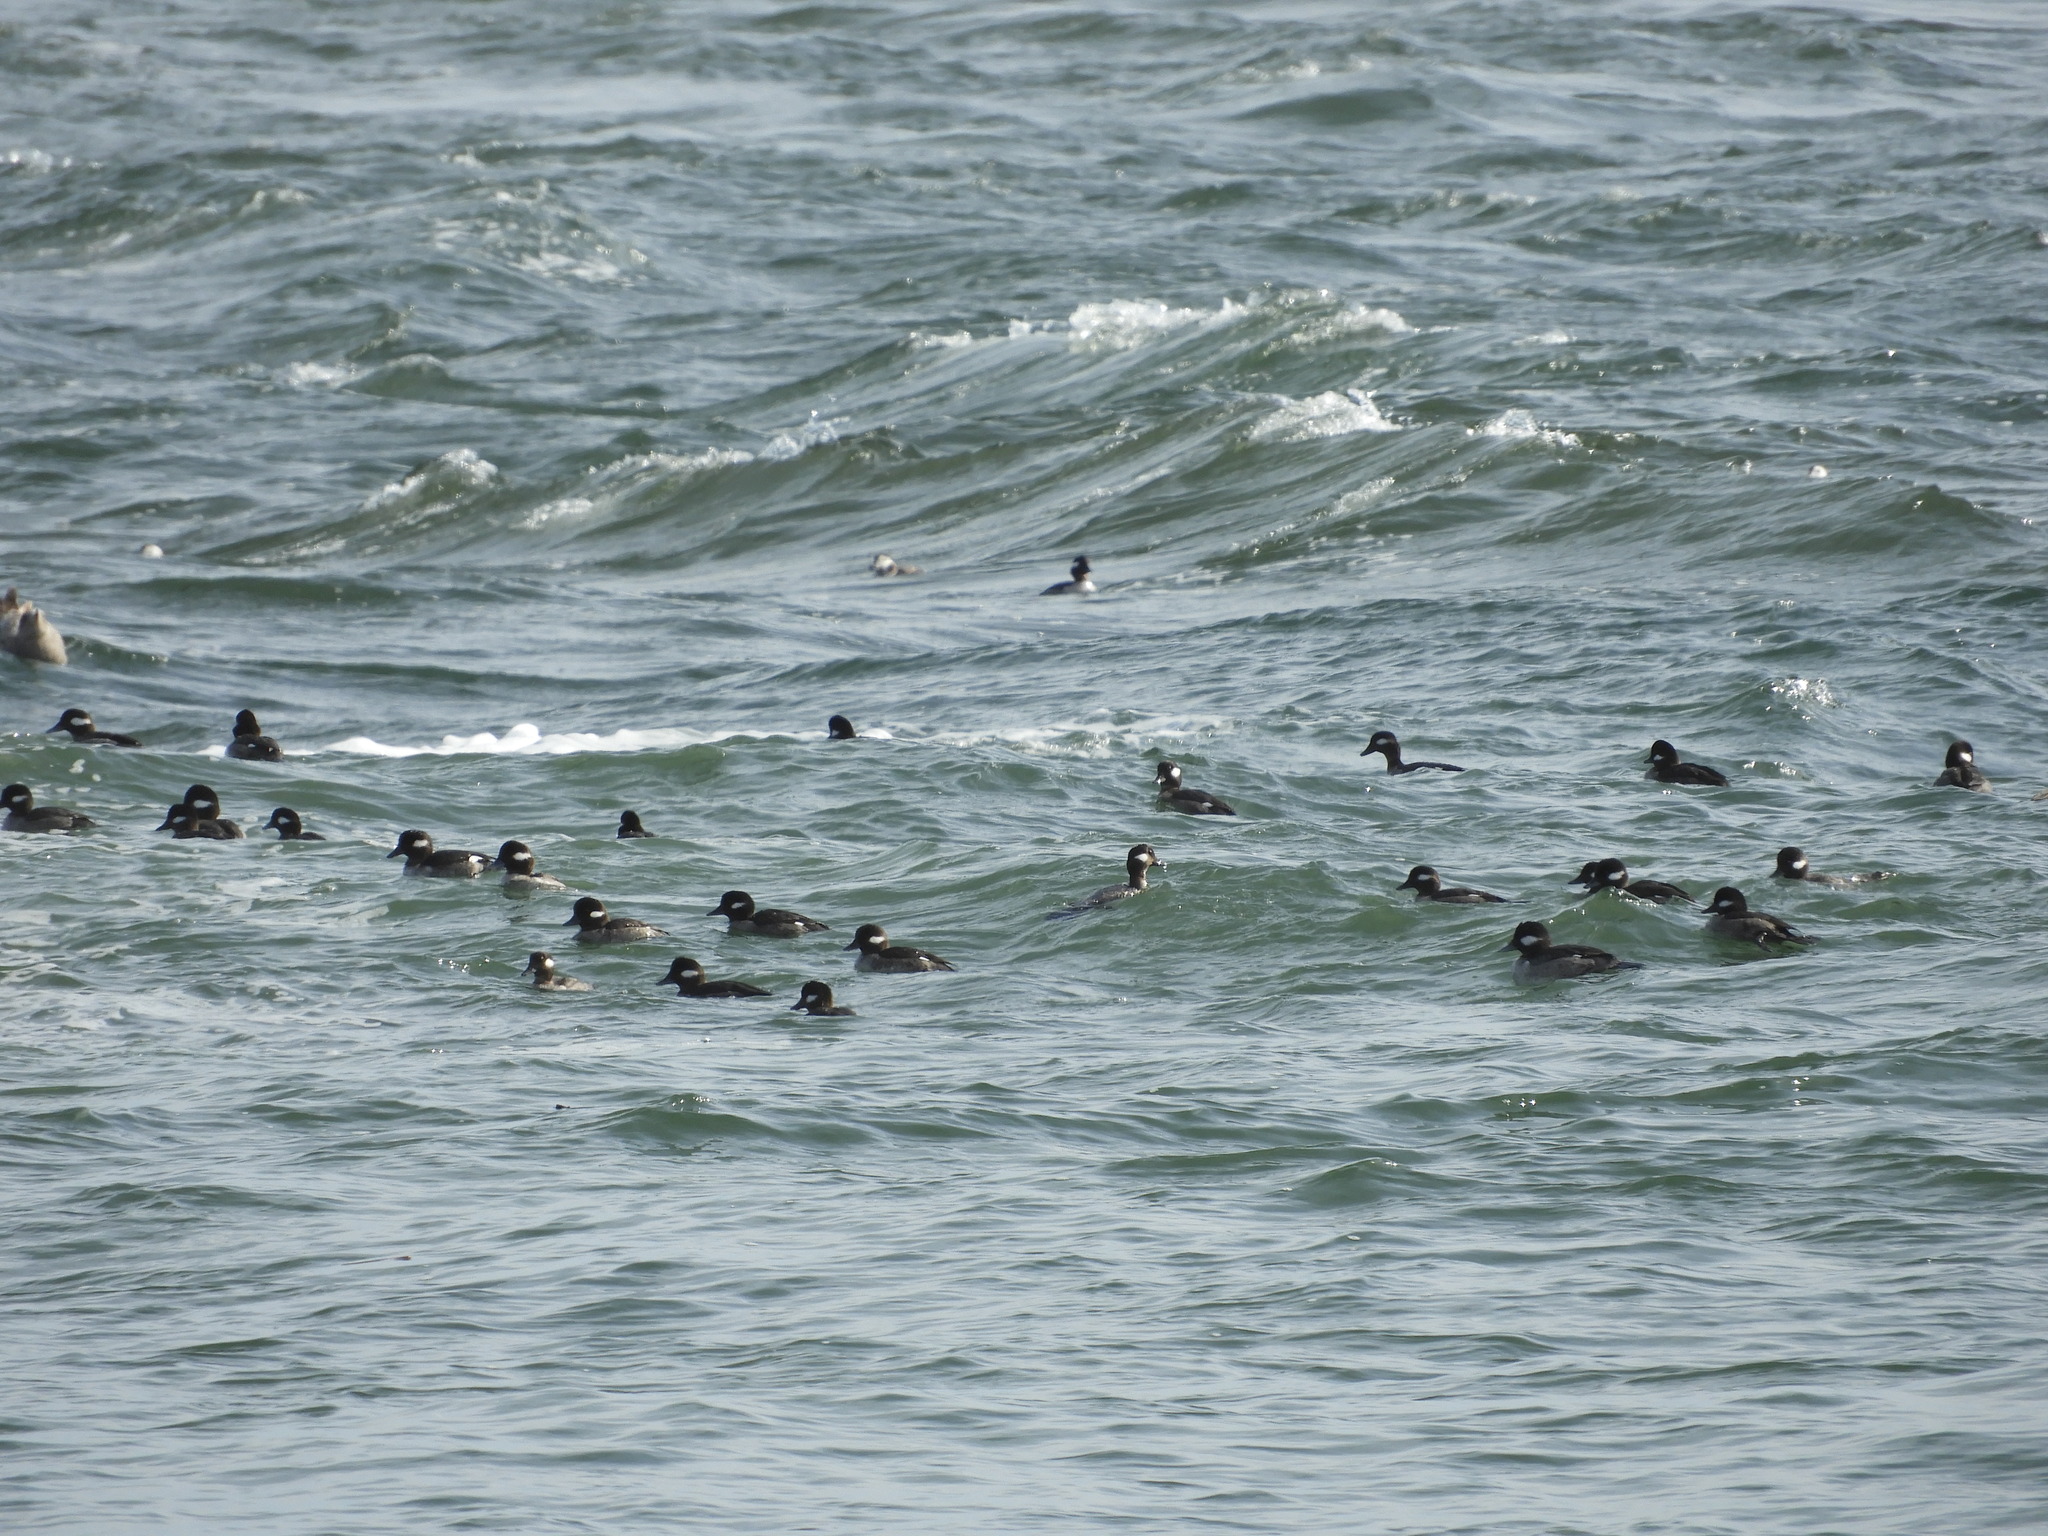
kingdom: Animalia
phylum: Chordata
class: Aves
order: Anseriformes
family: Anatidae
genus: Bucephala
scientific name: Bucephala albeola
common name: Bufflehead
